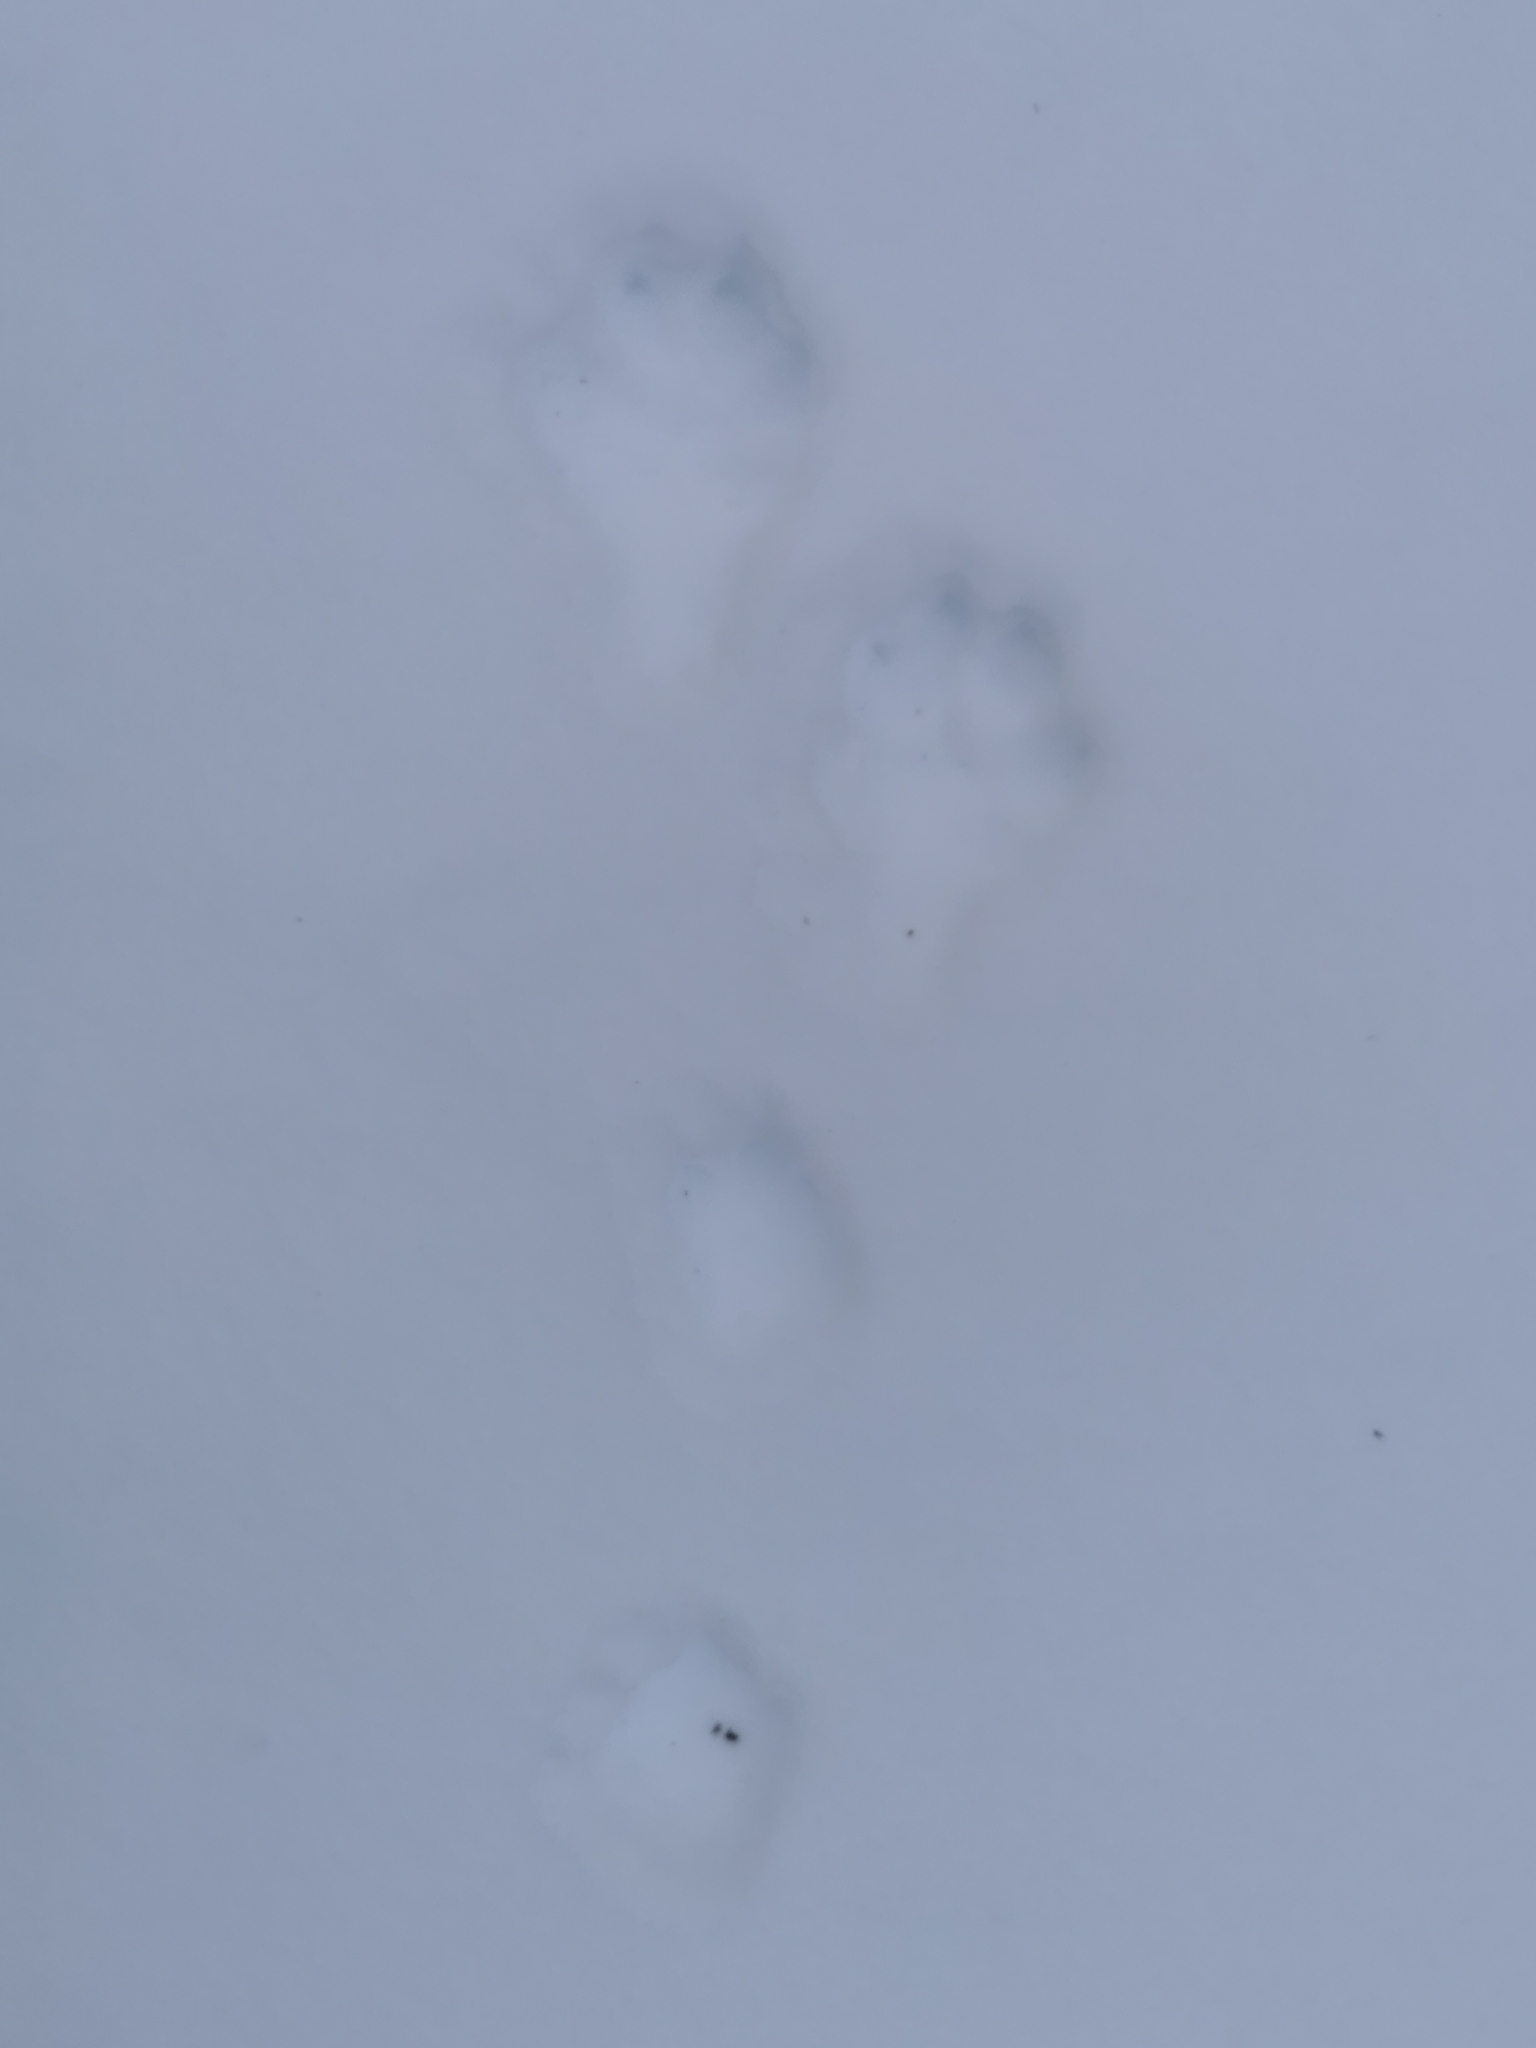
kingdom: Animalia
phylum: Chordata
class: Mammalia
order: Lagomorpha
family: Leporidae
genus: Lepus
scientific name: Lepus timidus
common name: Mountain hare
